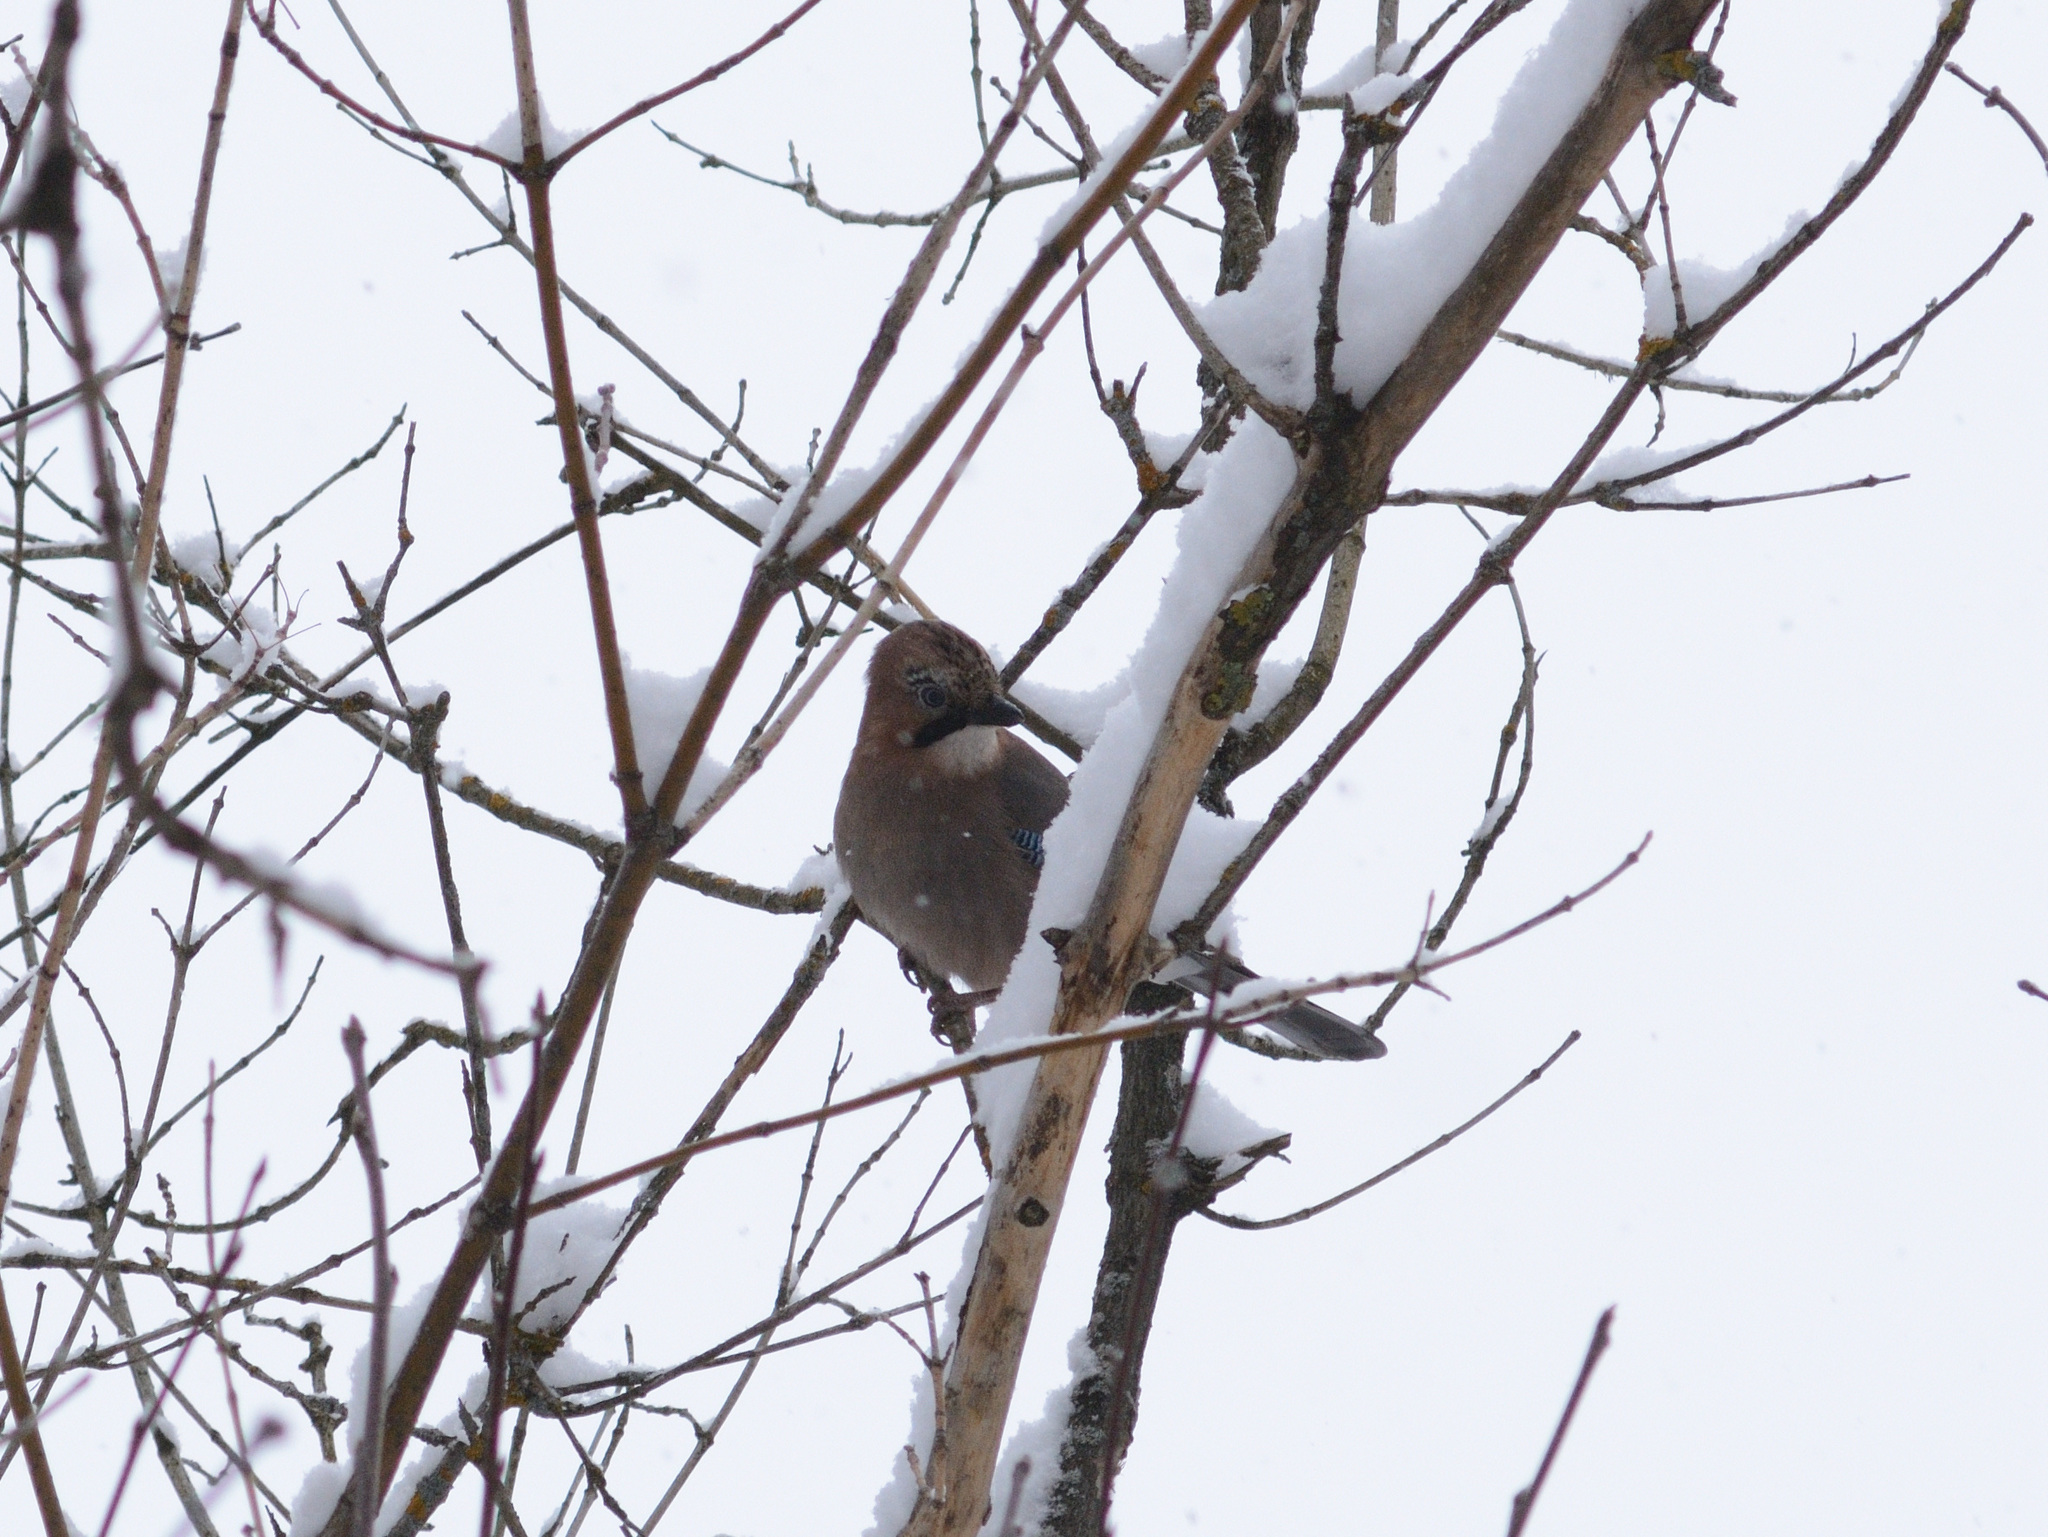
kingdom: Animalia
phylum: Chordata
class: Aves
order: Passeriformes
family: Corvidae
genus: Garrulus
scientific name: Garrulus glandarius
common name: Eurasian jay
